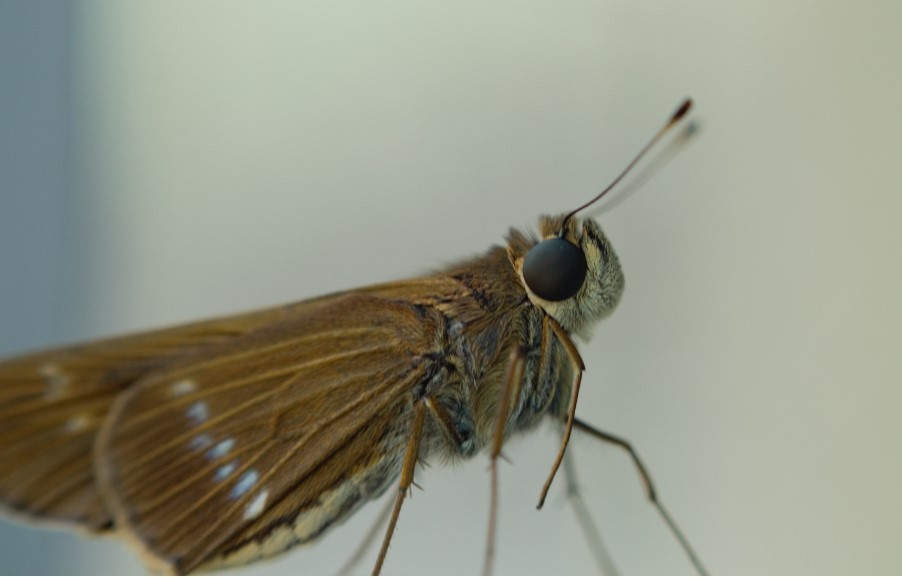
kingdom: Animalia
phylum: Arthropoda
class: Insecta
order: Lepidoptera
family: Hesperiidae
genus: Turesis
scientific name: Turesis lucas
